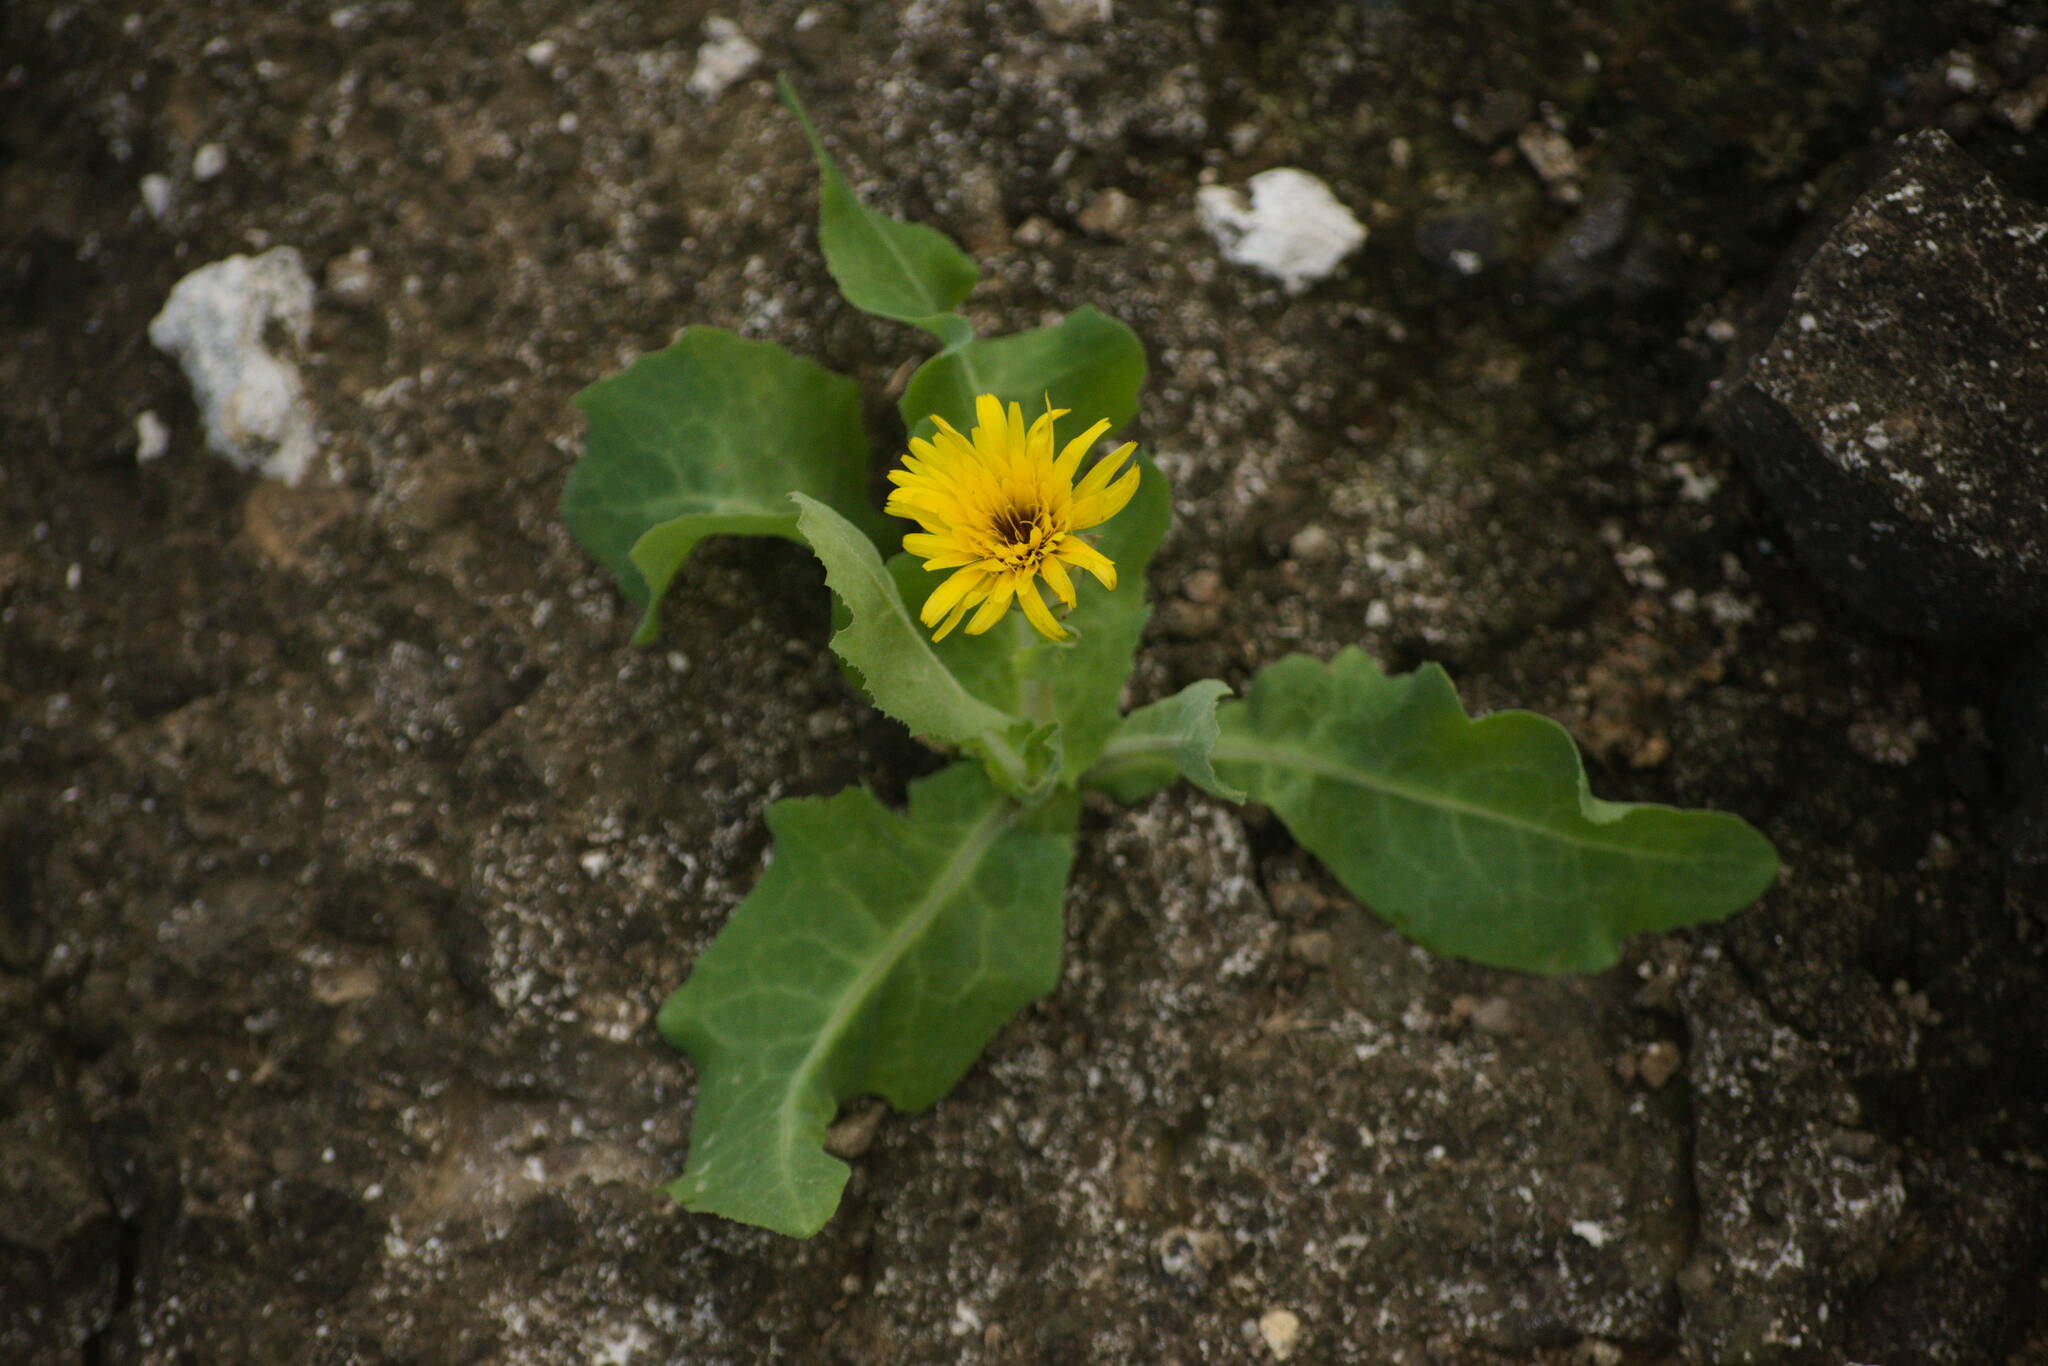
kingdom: Plantae
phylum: Tracheophyta
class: Magnoliopsida
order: Asterales
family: Asteraceae
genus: Reichardia
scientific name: Reichardia tingitana
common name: Reichardia
